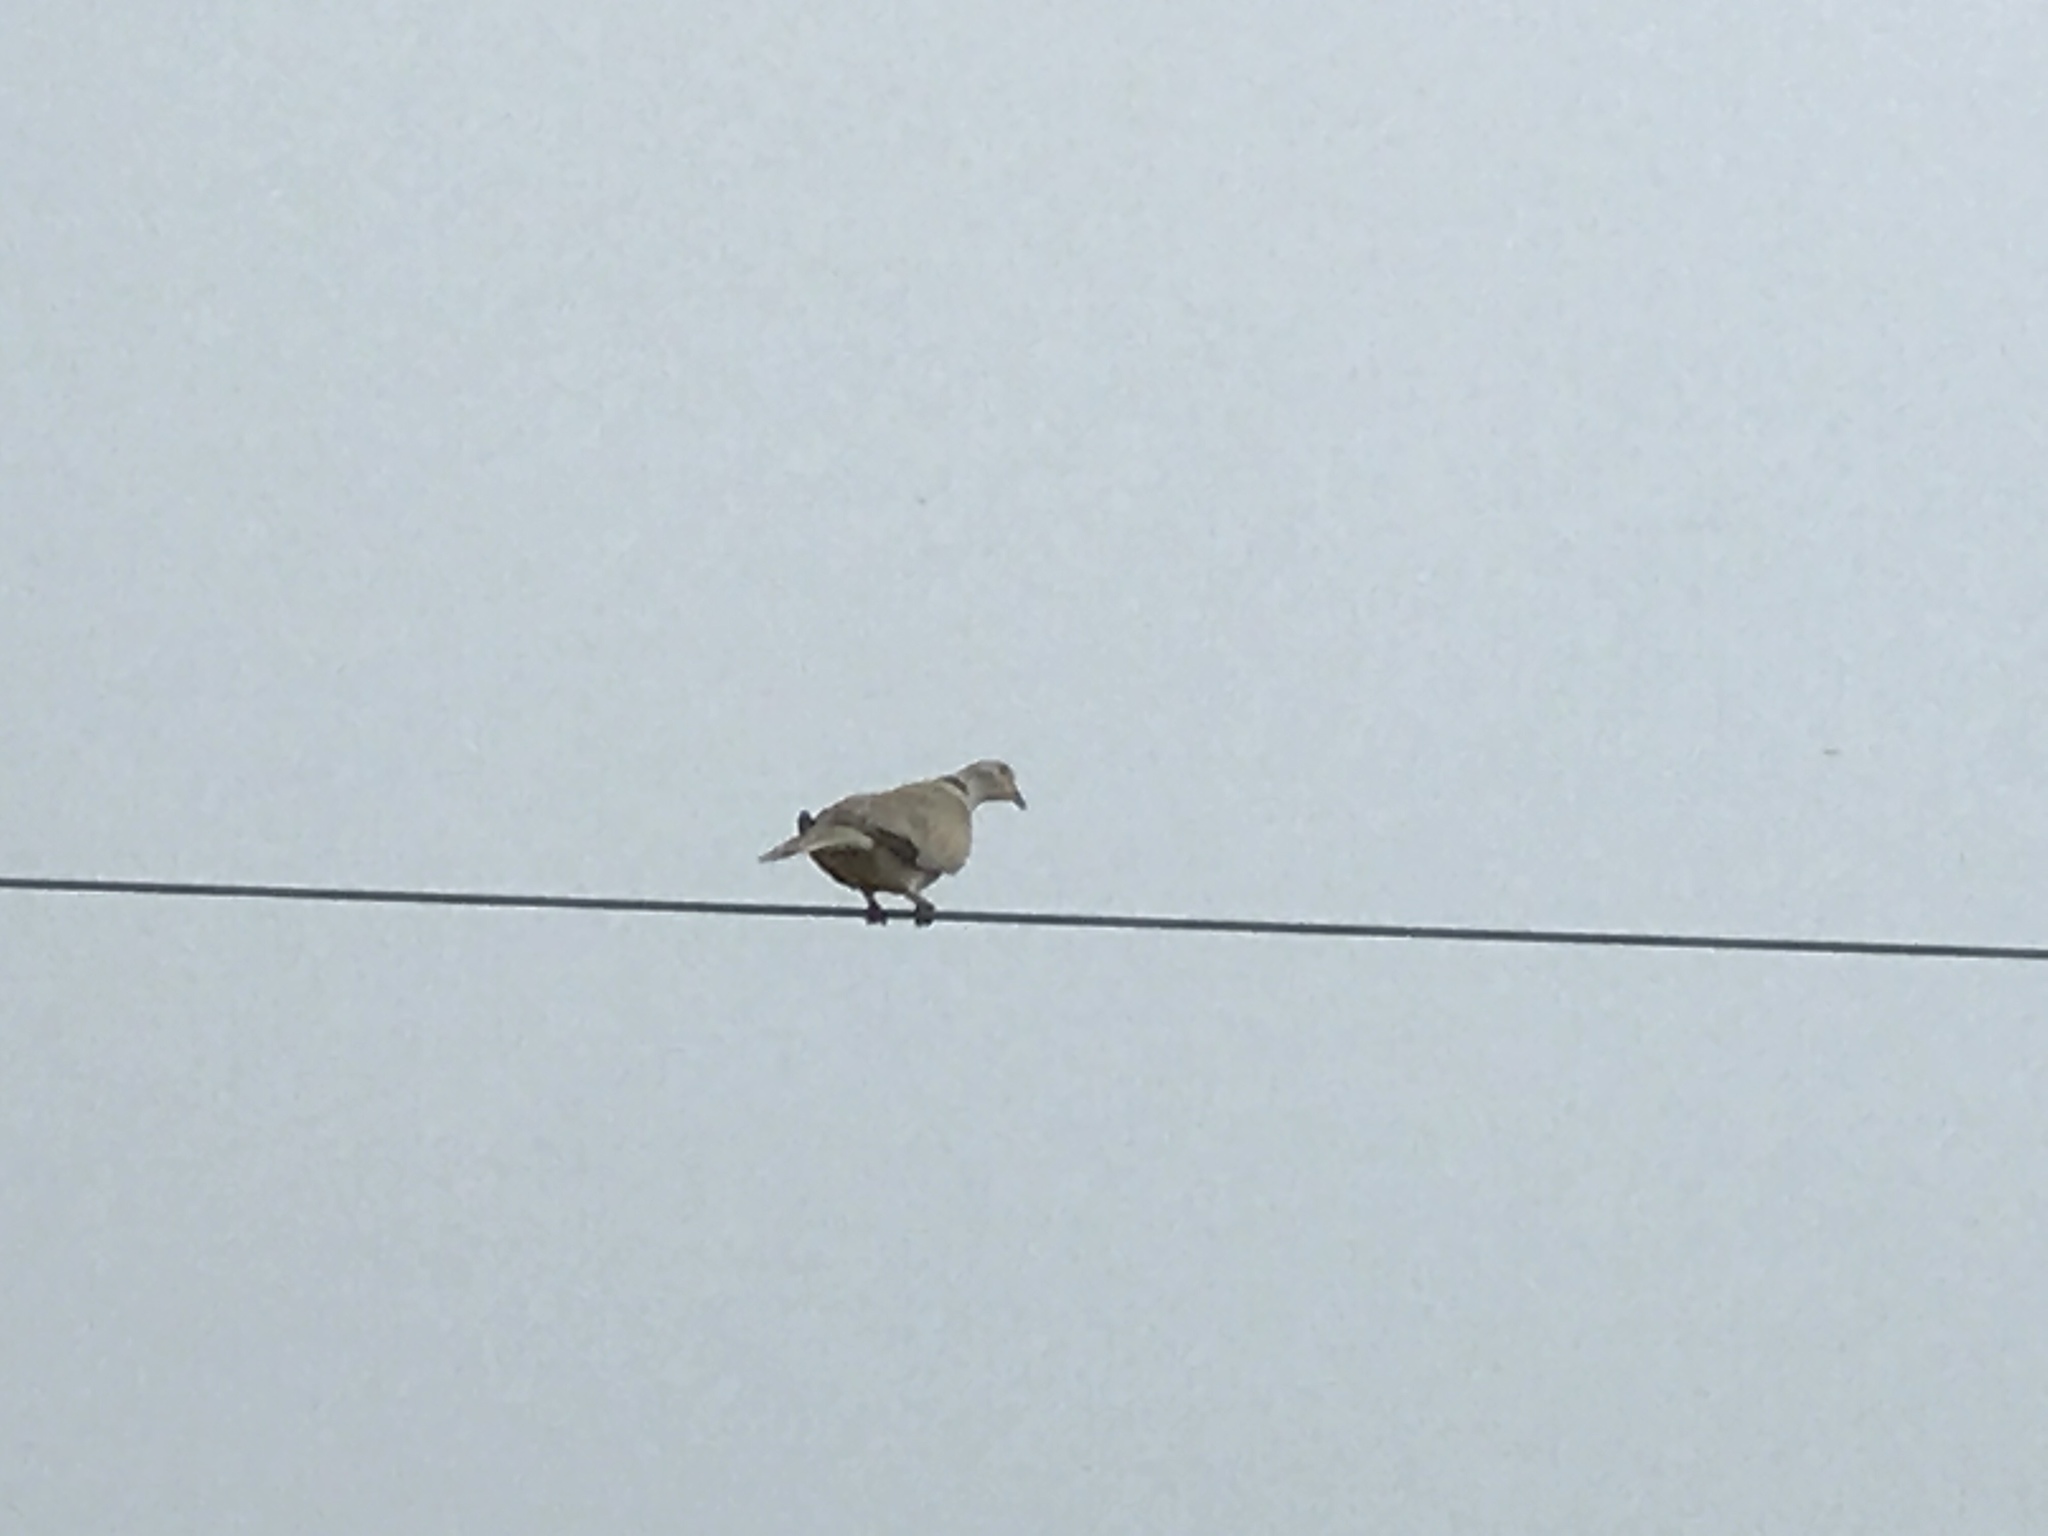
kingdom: Animalia
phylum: Chordata
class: Aves
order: Columbiformes
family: Columbidae
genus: Streptopelia
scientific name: Streptopelia decaocto
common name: Eurasian collared dove
